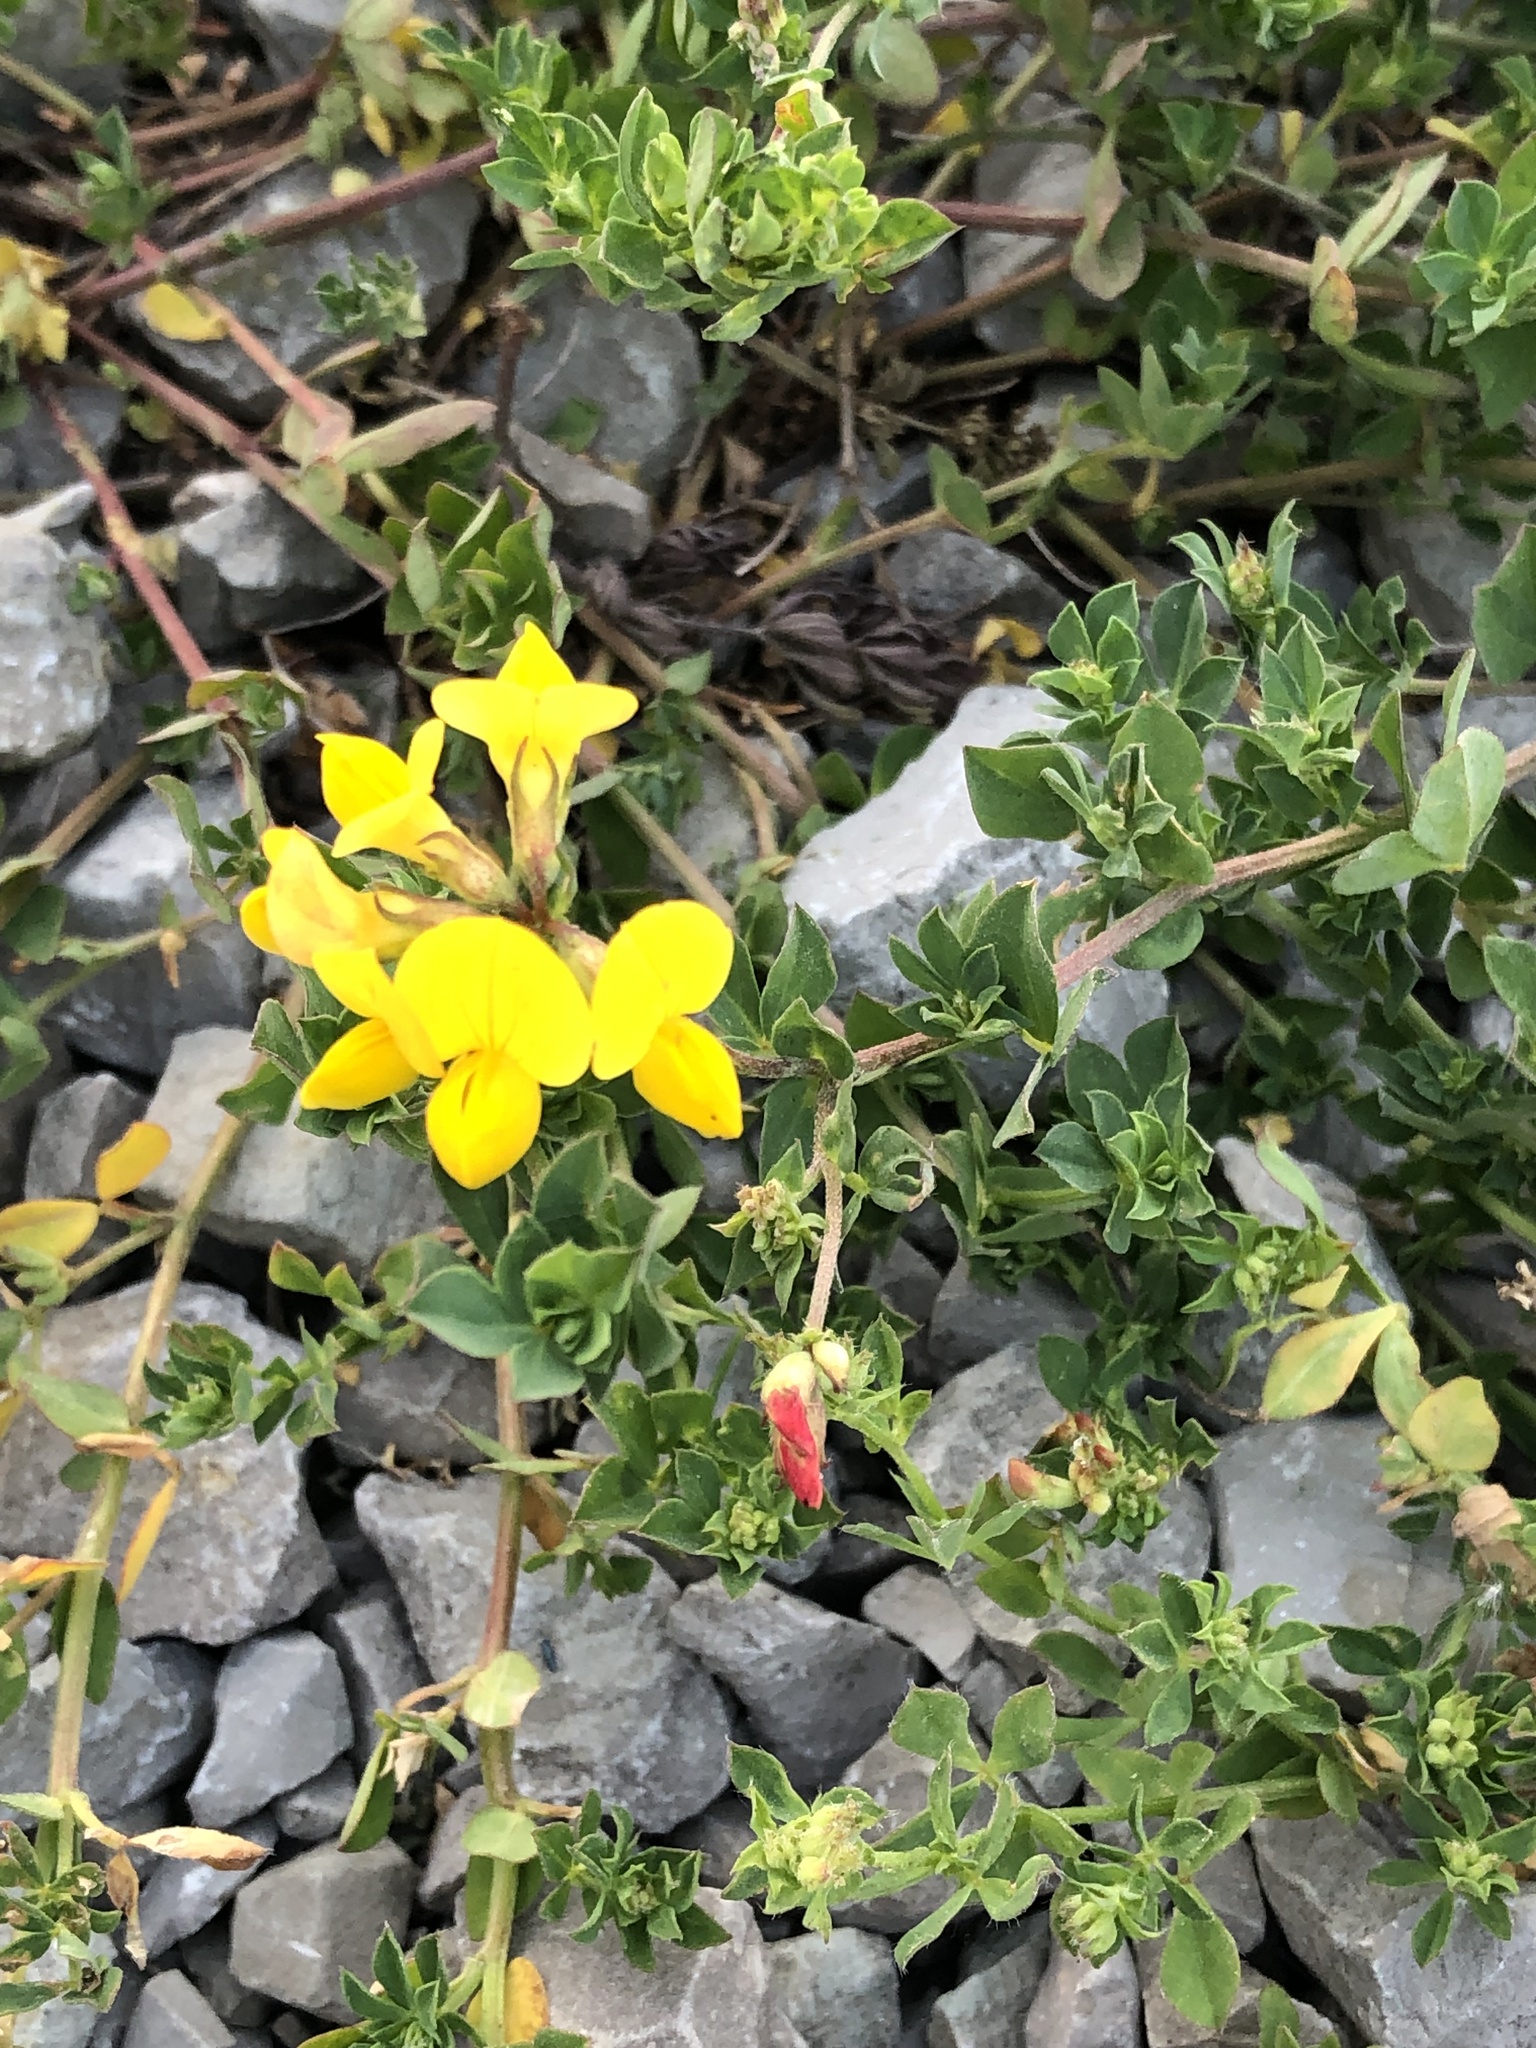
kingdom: Plantae
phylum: Tracheophyta
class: Magnoliopsida
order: Fabales
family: Fabaceae
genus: Lotus
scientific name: Lotus corniculatus
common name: Common bird's-foot-trefoil
